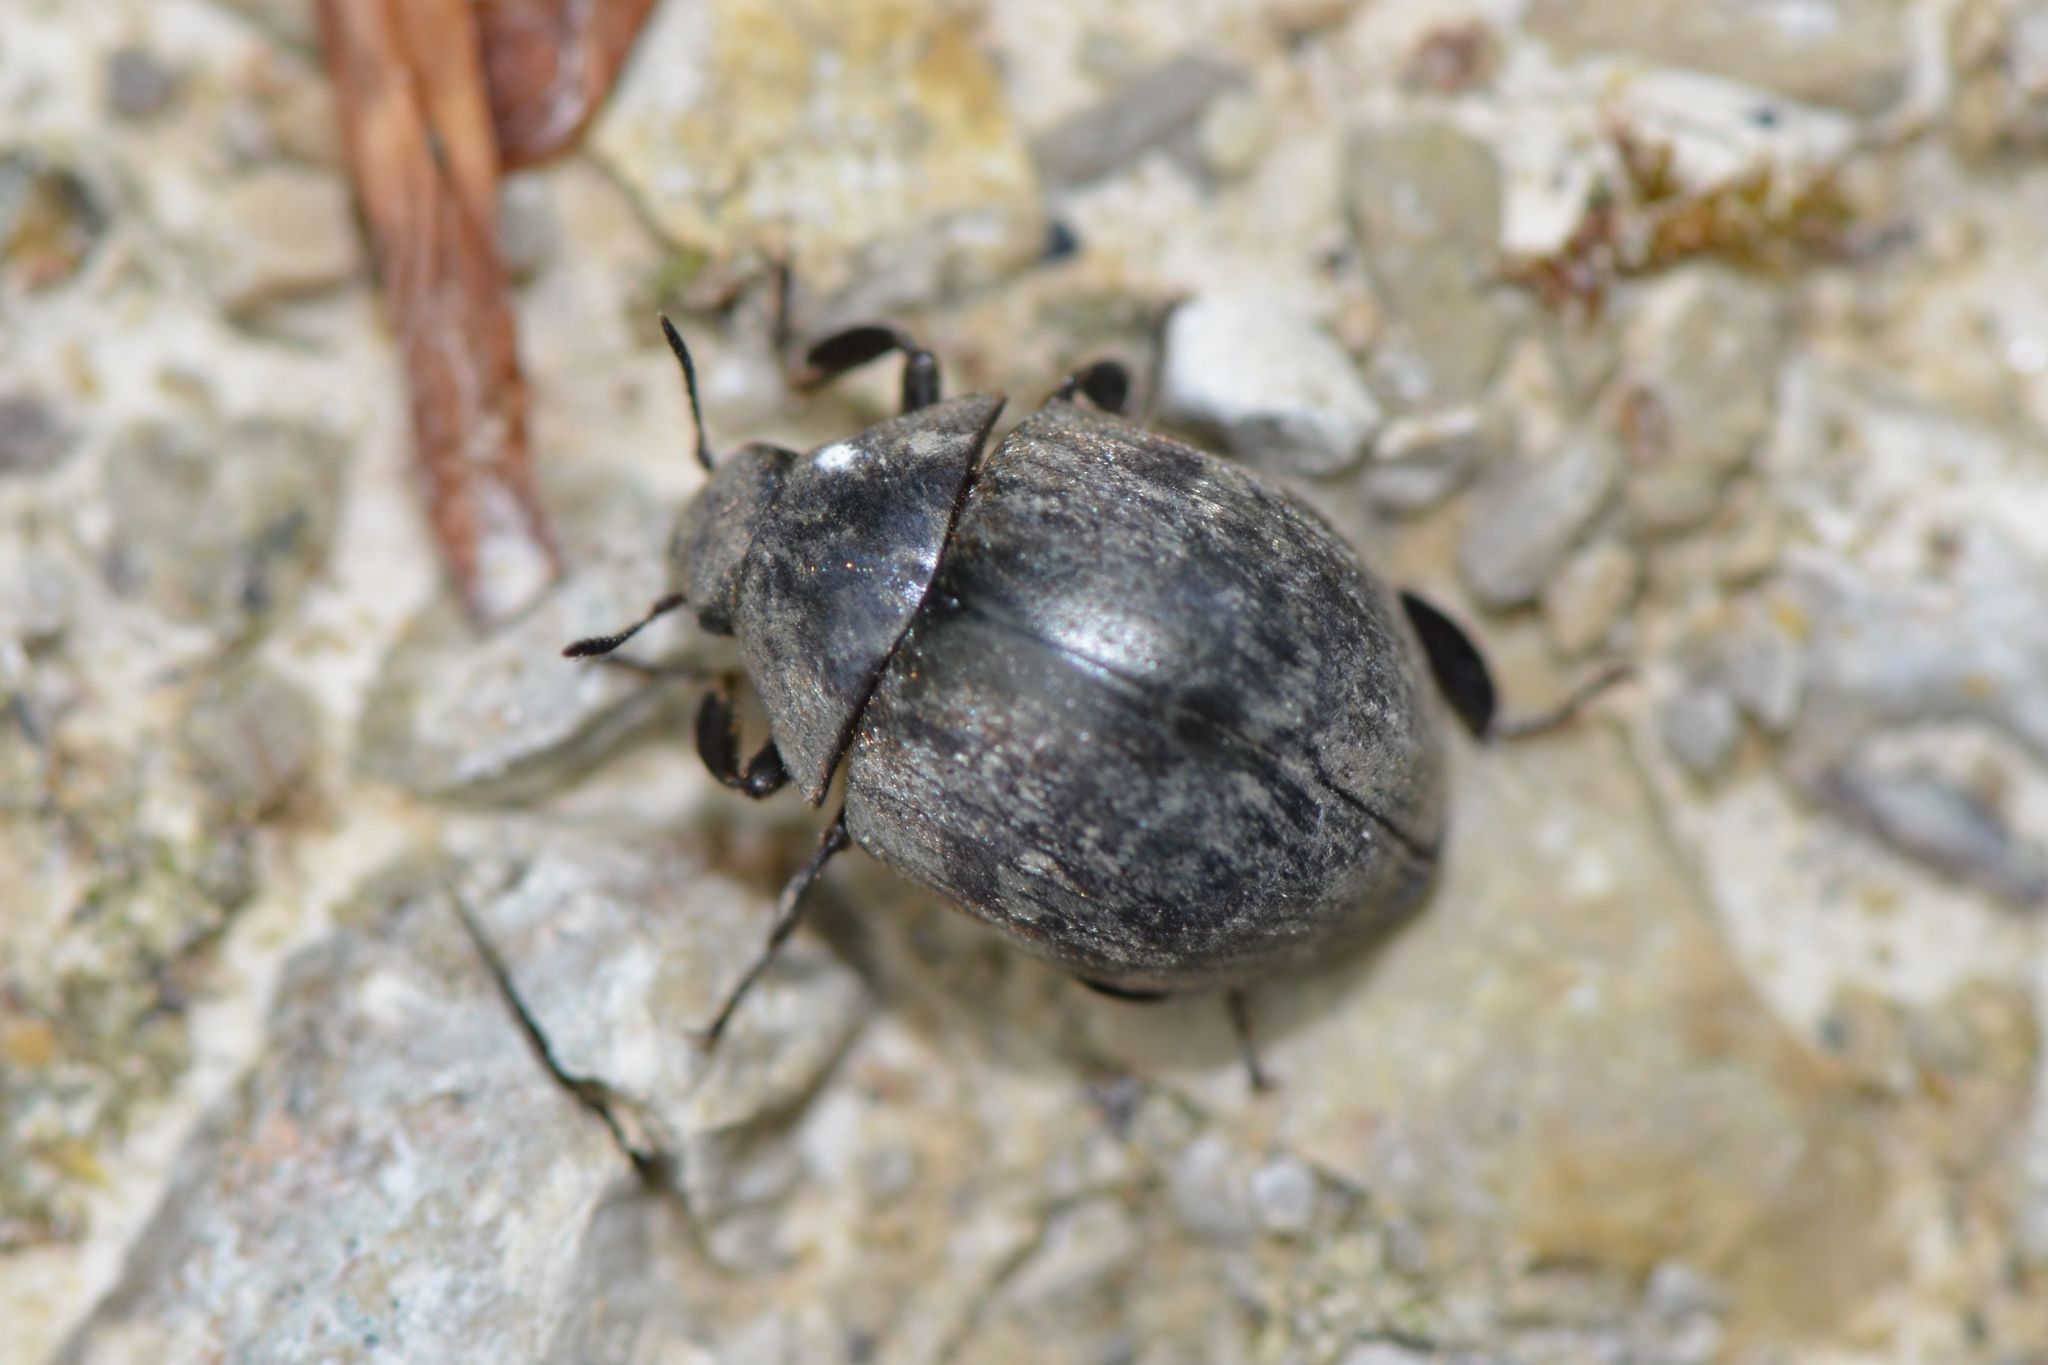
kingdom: Animalia
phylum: Arthropoda
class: Insecta
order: Coleoptera
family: Byrrhidae
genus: Byrrhus
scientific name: Byrrhus
